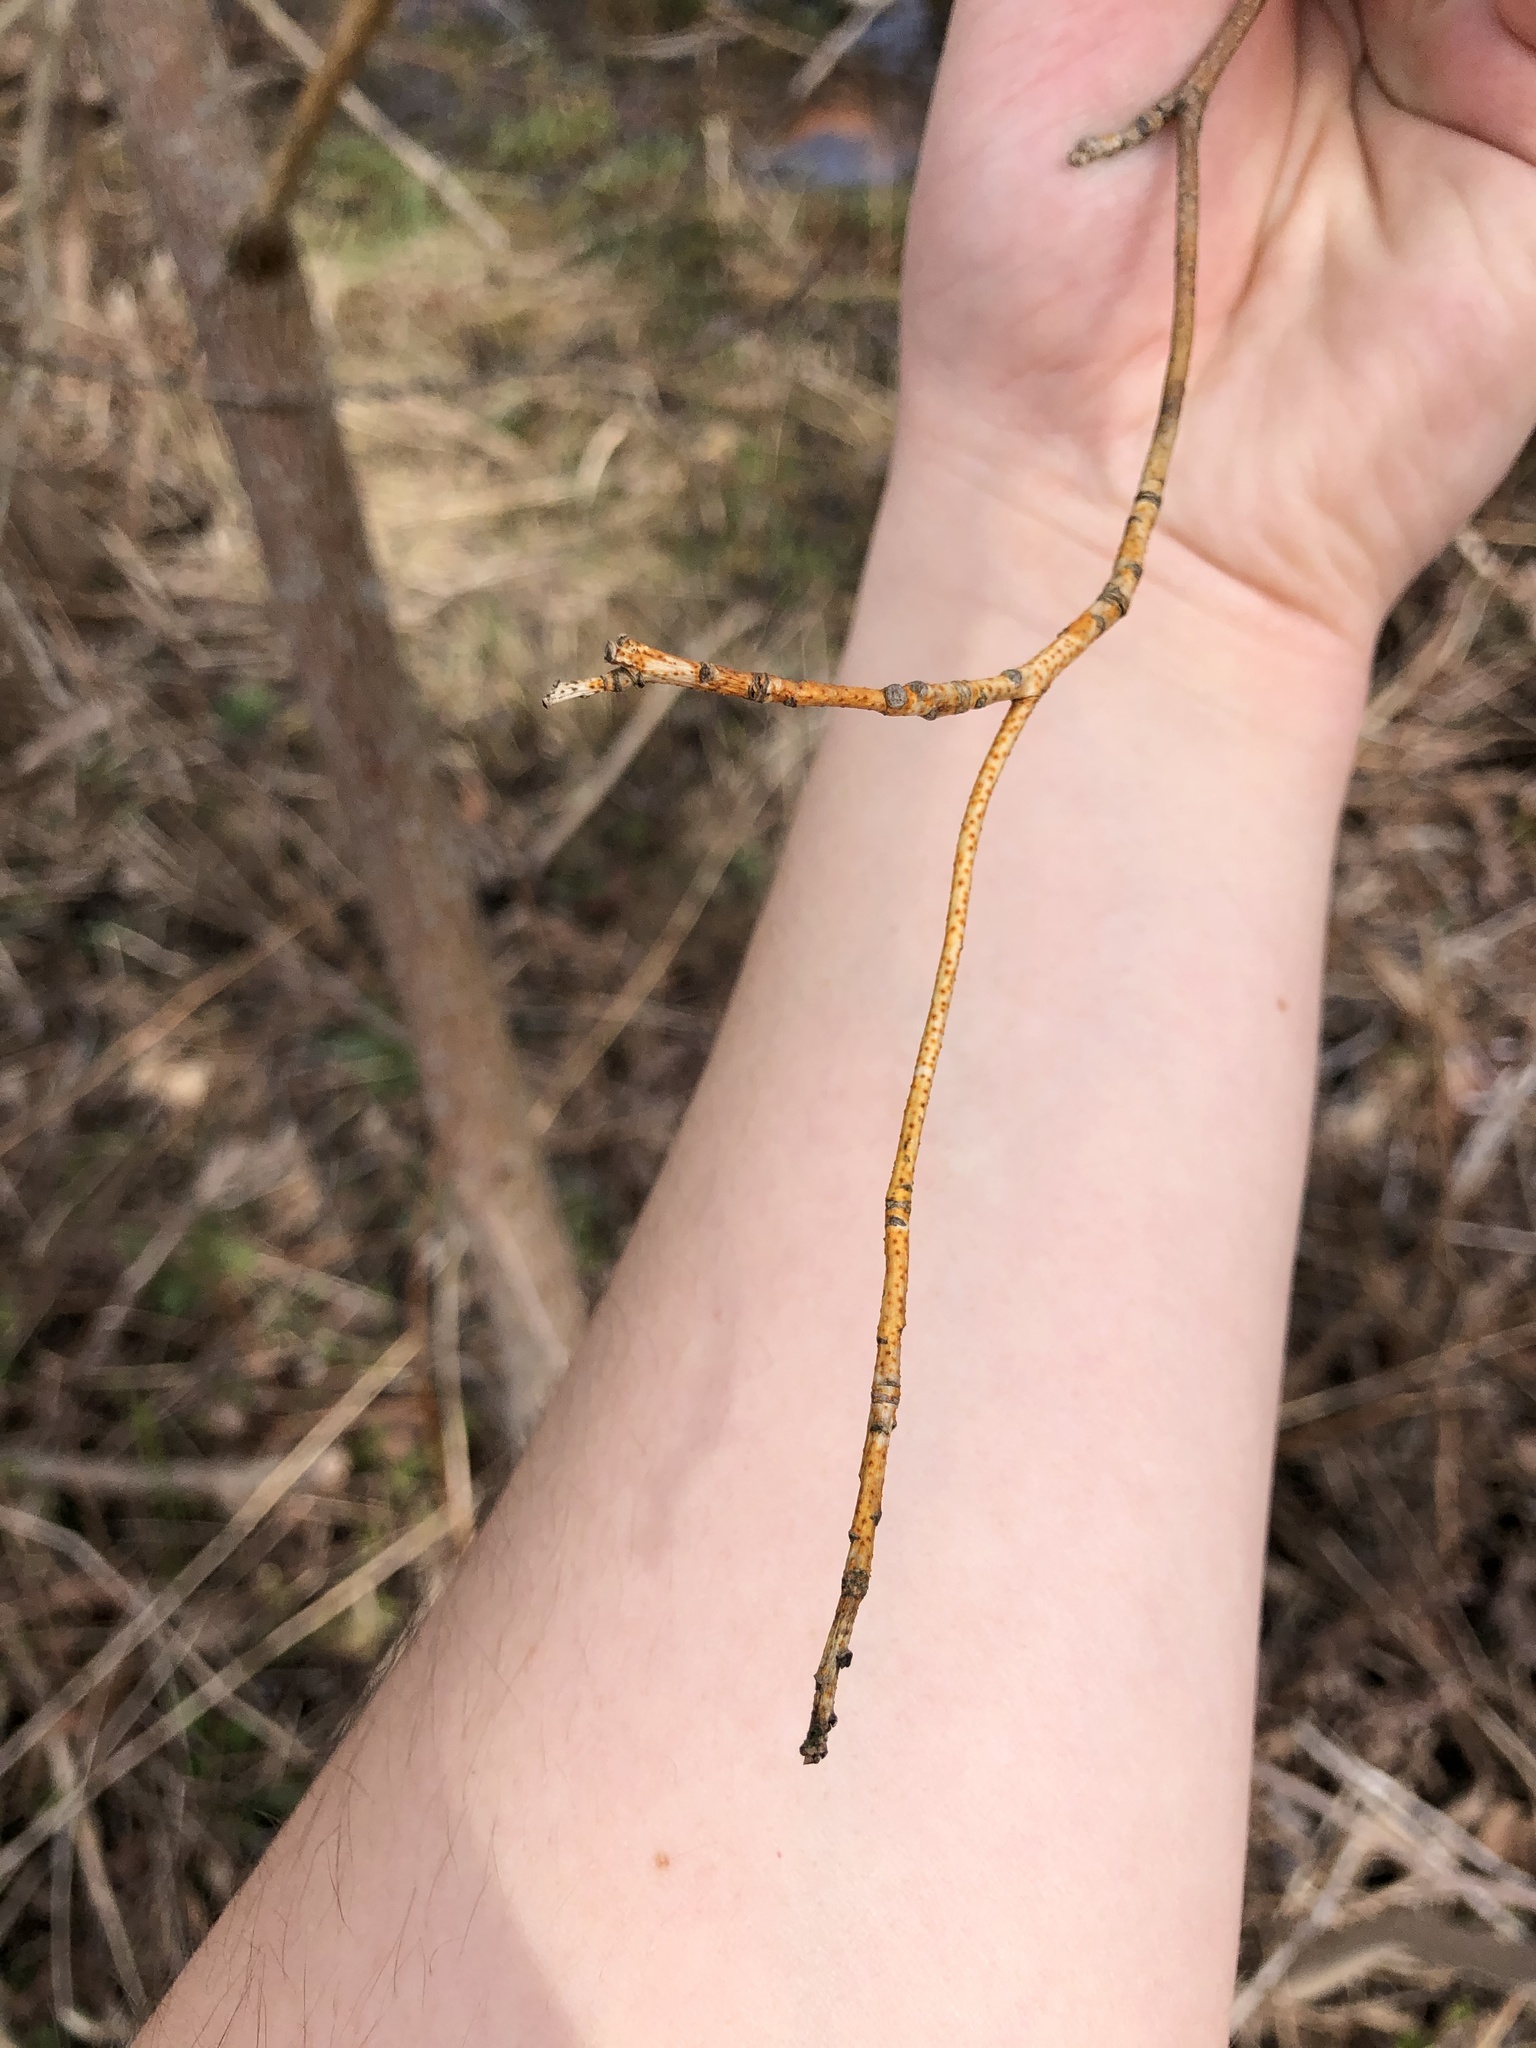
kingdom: Fungi
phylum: Ascomycota
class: Sordariomycetes
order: Diaporthales
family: Cryphonectriaceae
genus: Aurantioporthe
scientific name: Aurantioporthe corni
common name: Dogwood golden canker
